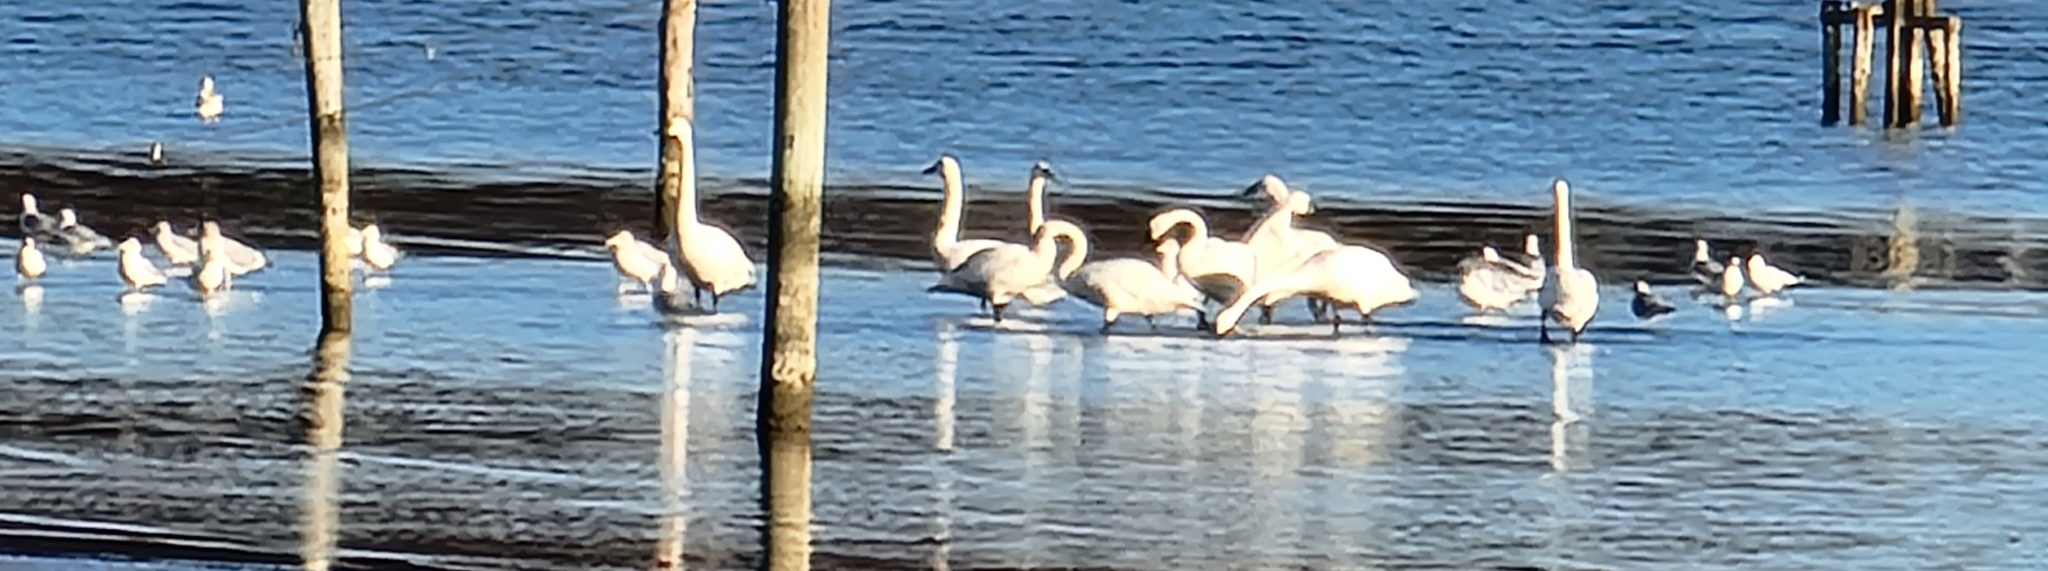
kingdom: Animalia
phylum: Chordata
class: Aves
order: Anseriformes
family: Anatidae
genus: Cygnus
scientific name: Cygnus columbianus
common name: Tundra swan
